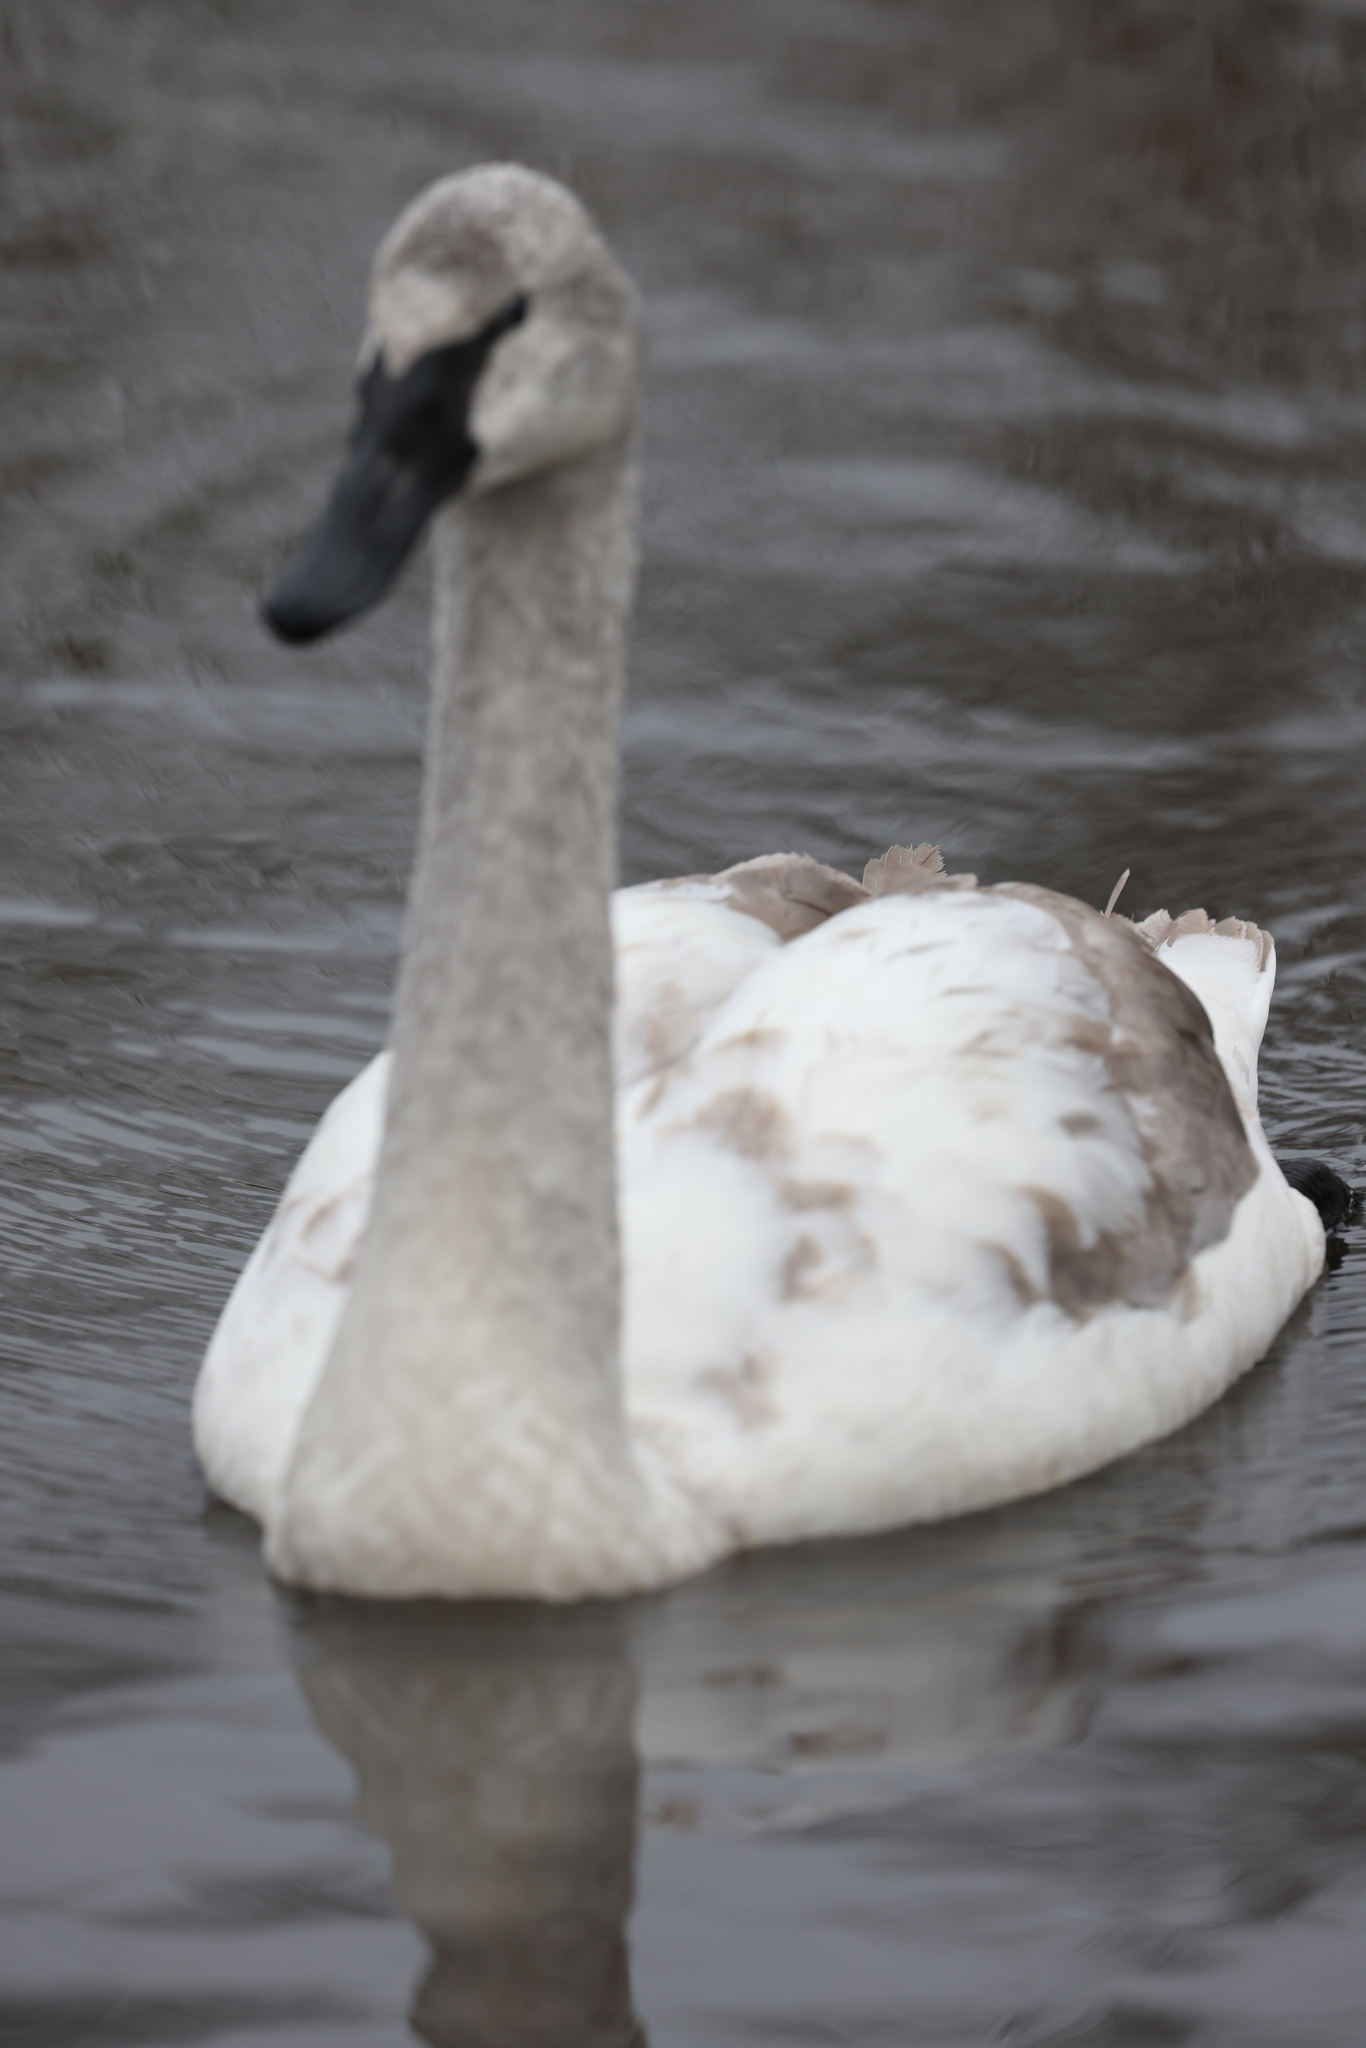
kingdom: Animalia
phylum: Chordata
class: Aves
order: Anseriformes
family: Anatidae
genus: Cygnus
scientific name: Cygnus olor
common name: Mute swan
